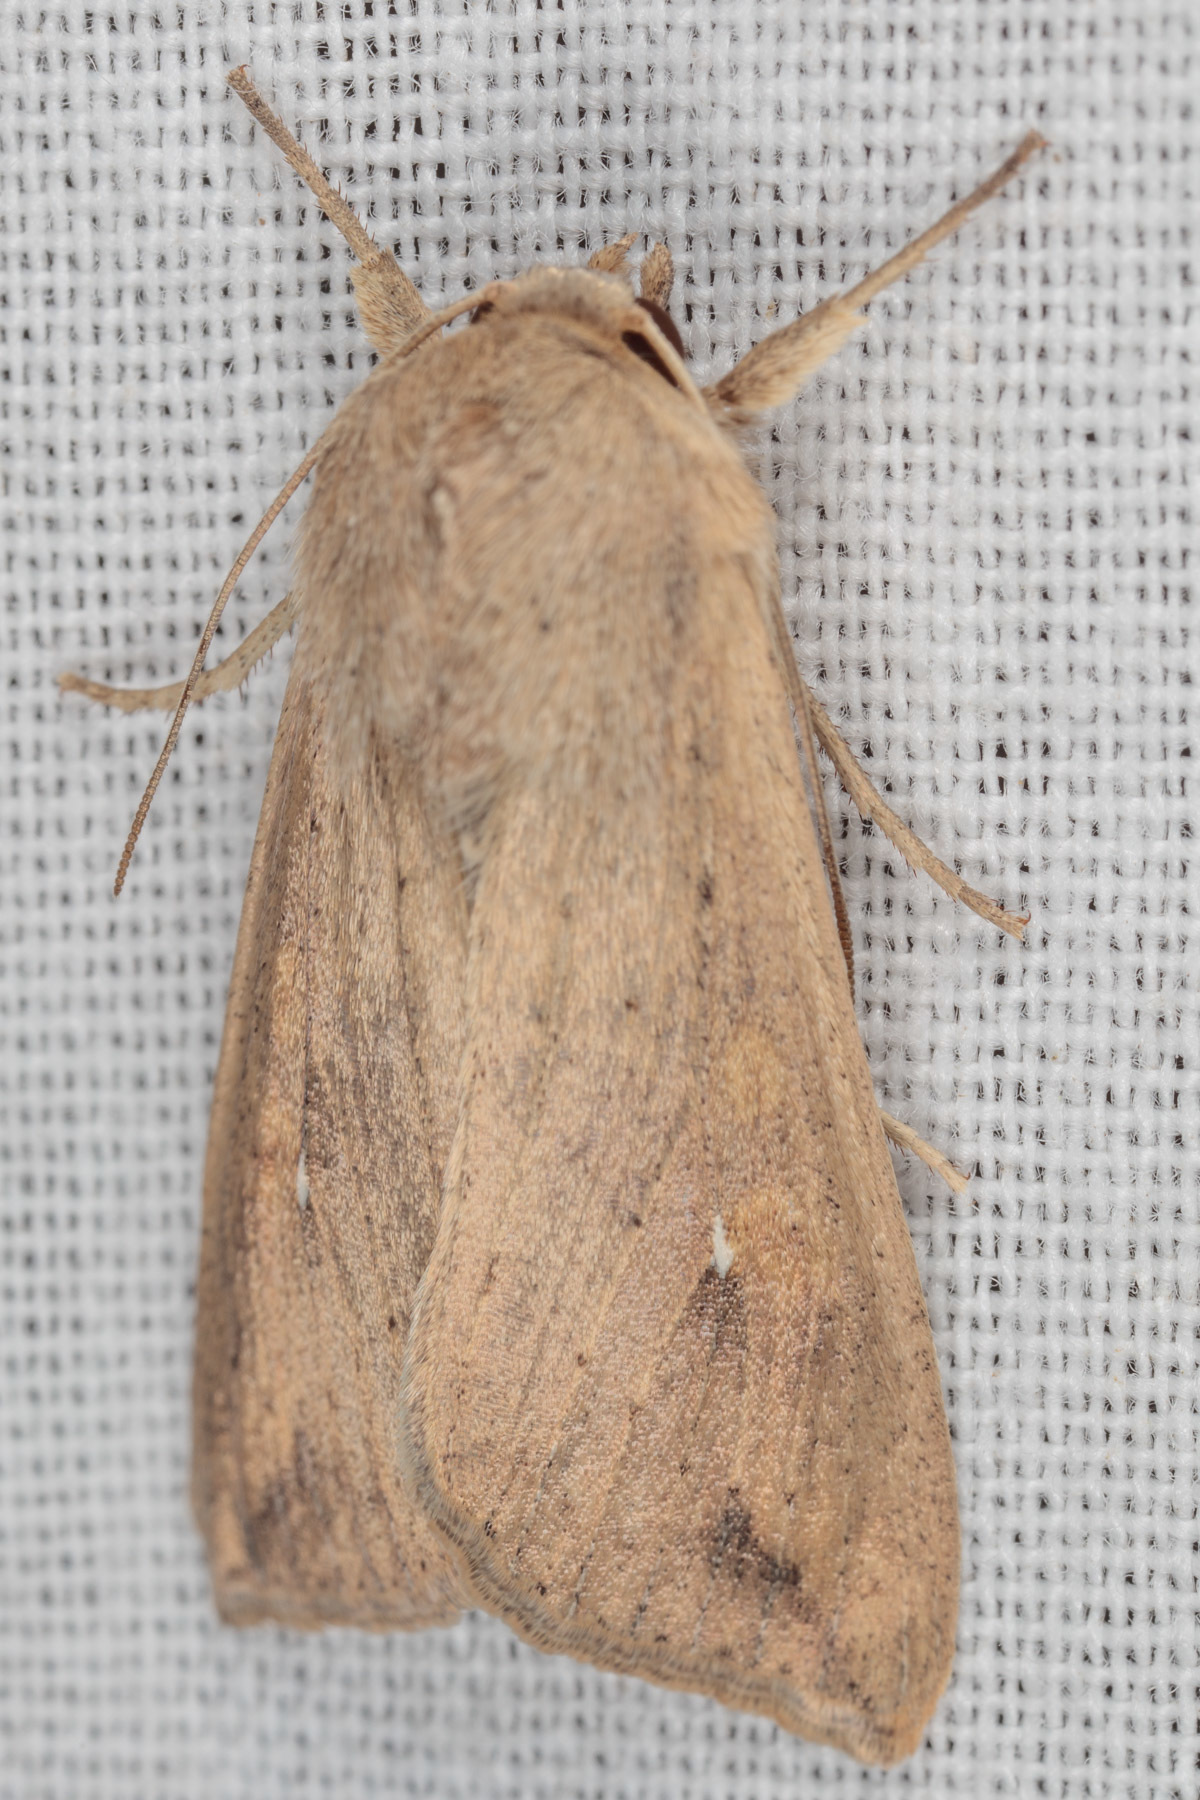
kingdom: Animalia
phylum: Arthropoda
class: Insecta
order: Lepidoptera
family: Noctuidae
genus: Mythimna
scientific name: Mythimna unipuncta
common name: White-speck
